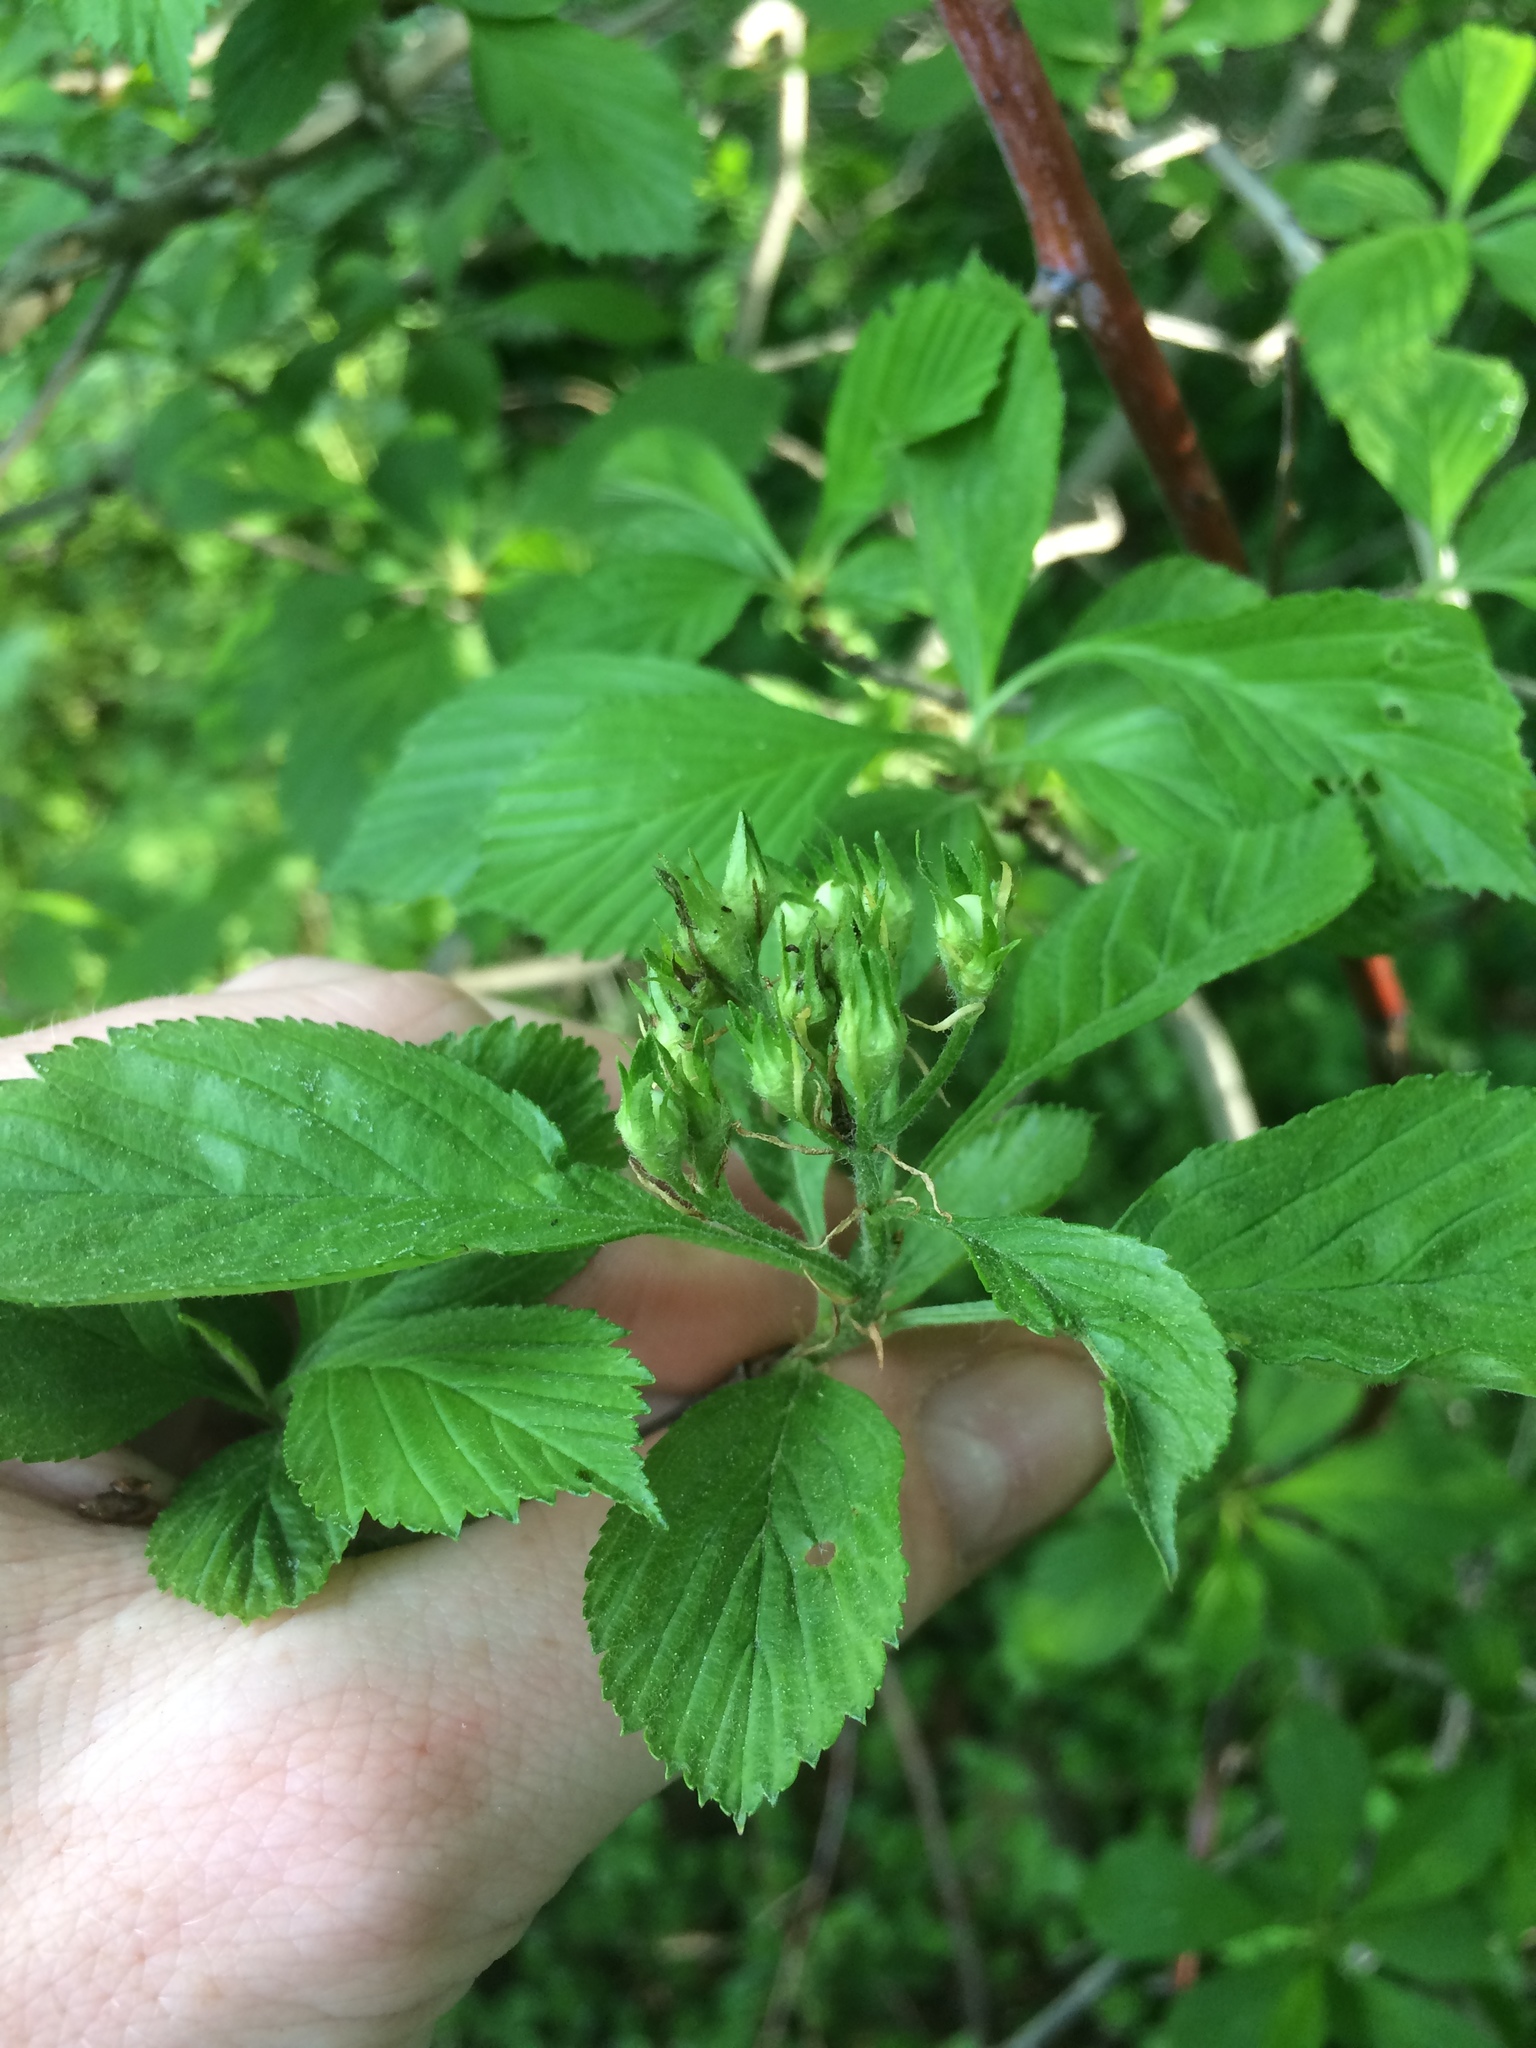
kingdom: Plantae
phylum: Tracheophyta
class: Magnoliopsida
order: Rosales
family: Rosaceae
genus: Crataegus
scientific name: Crataegus punctata
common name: Dotted hawthorn
